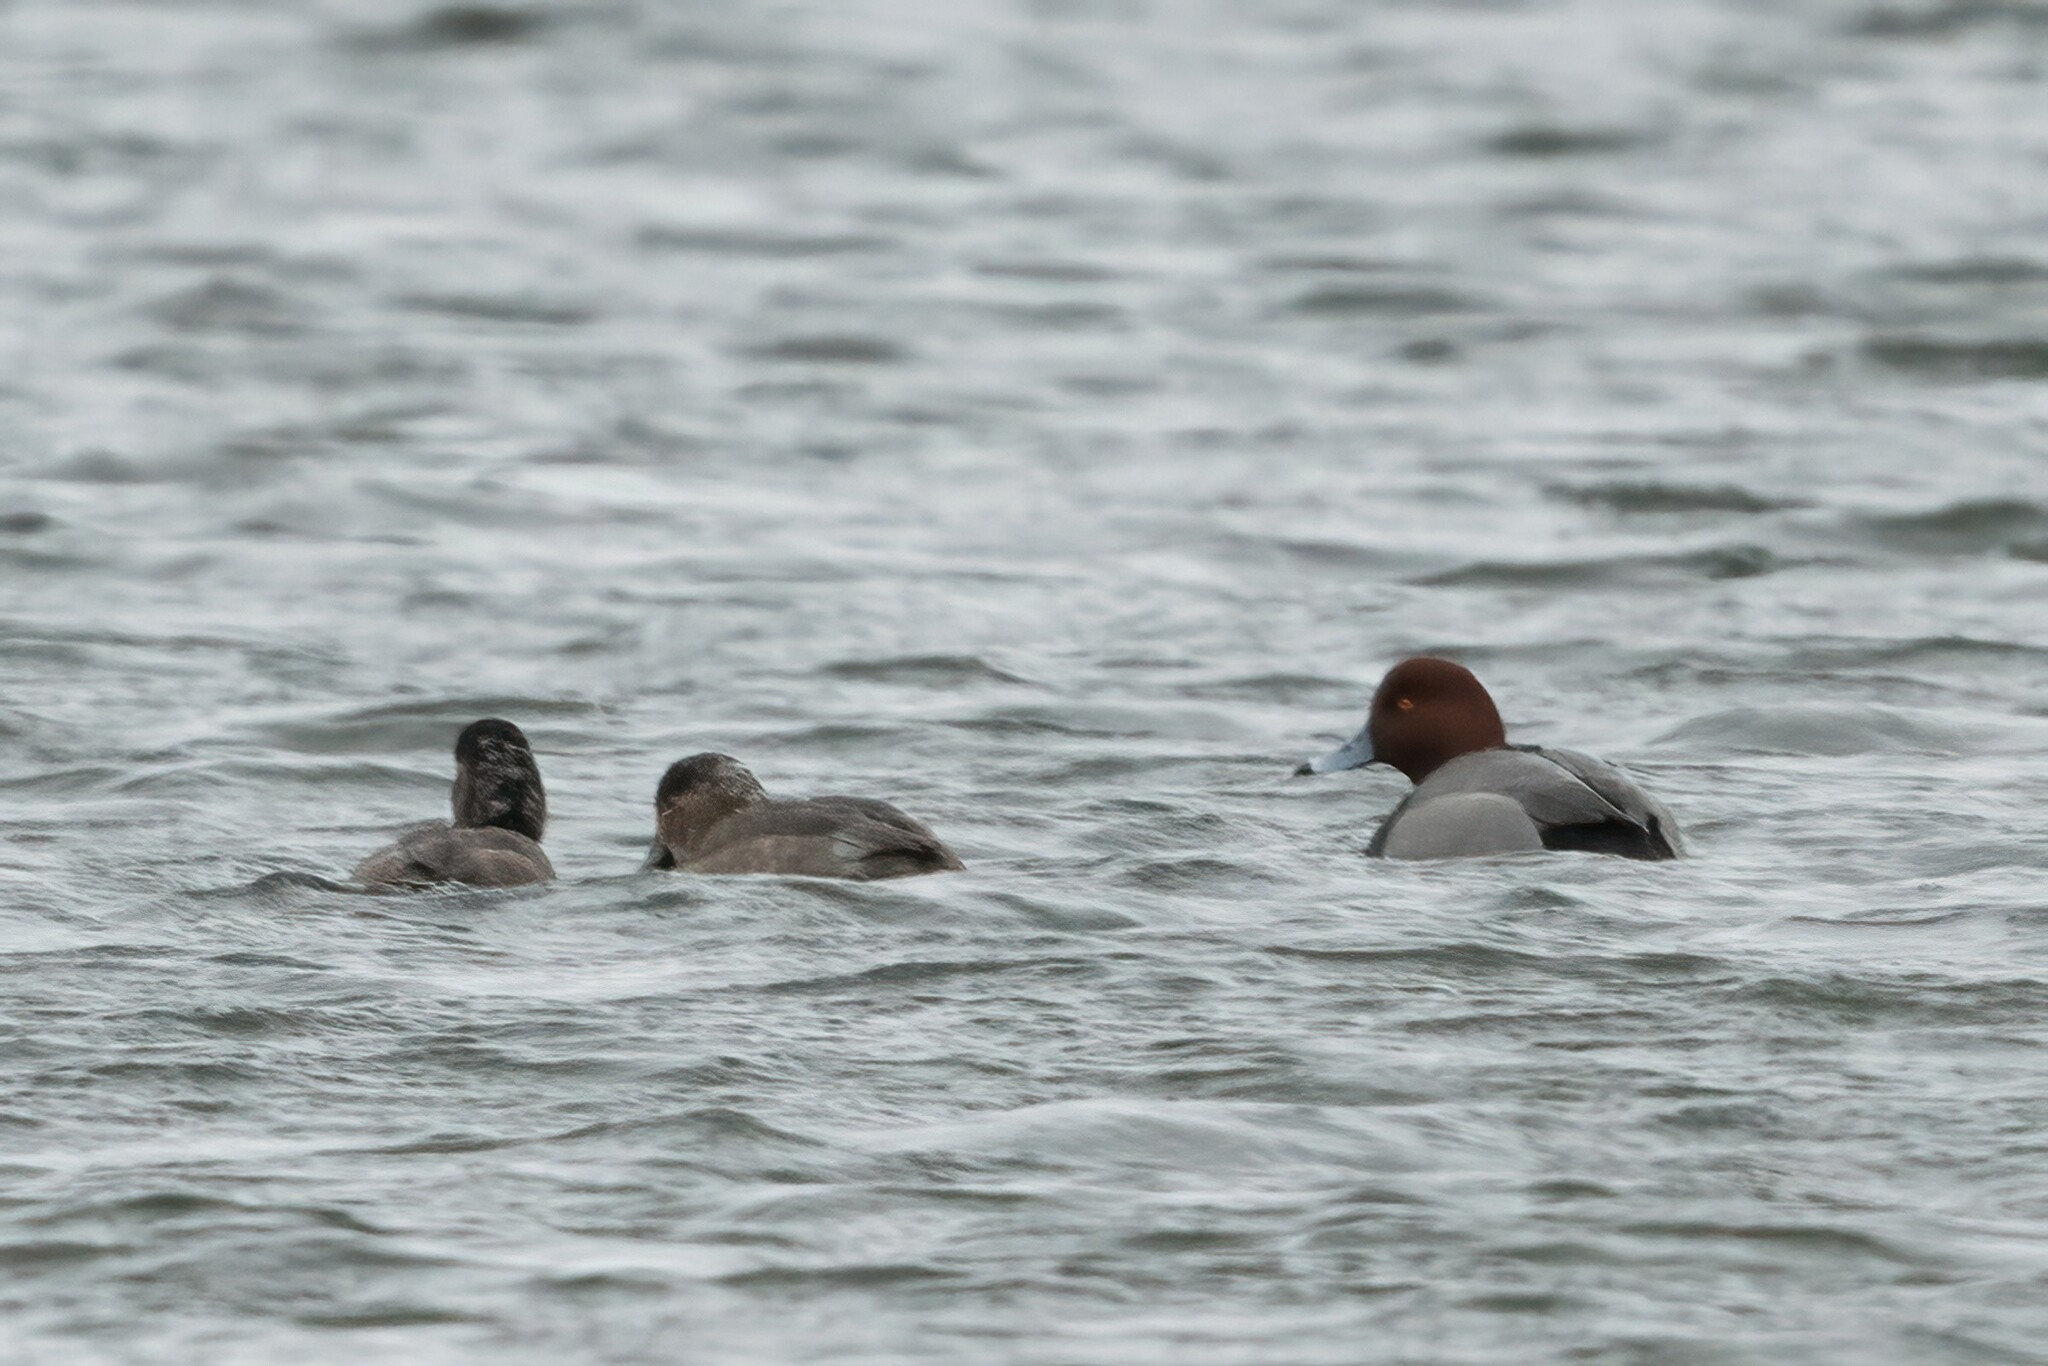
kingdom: Animalia
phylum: Chordata
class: Aves
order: Anseriformes
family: Anatidae
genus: Aythya
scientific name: Aythya americana
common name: Redhead
